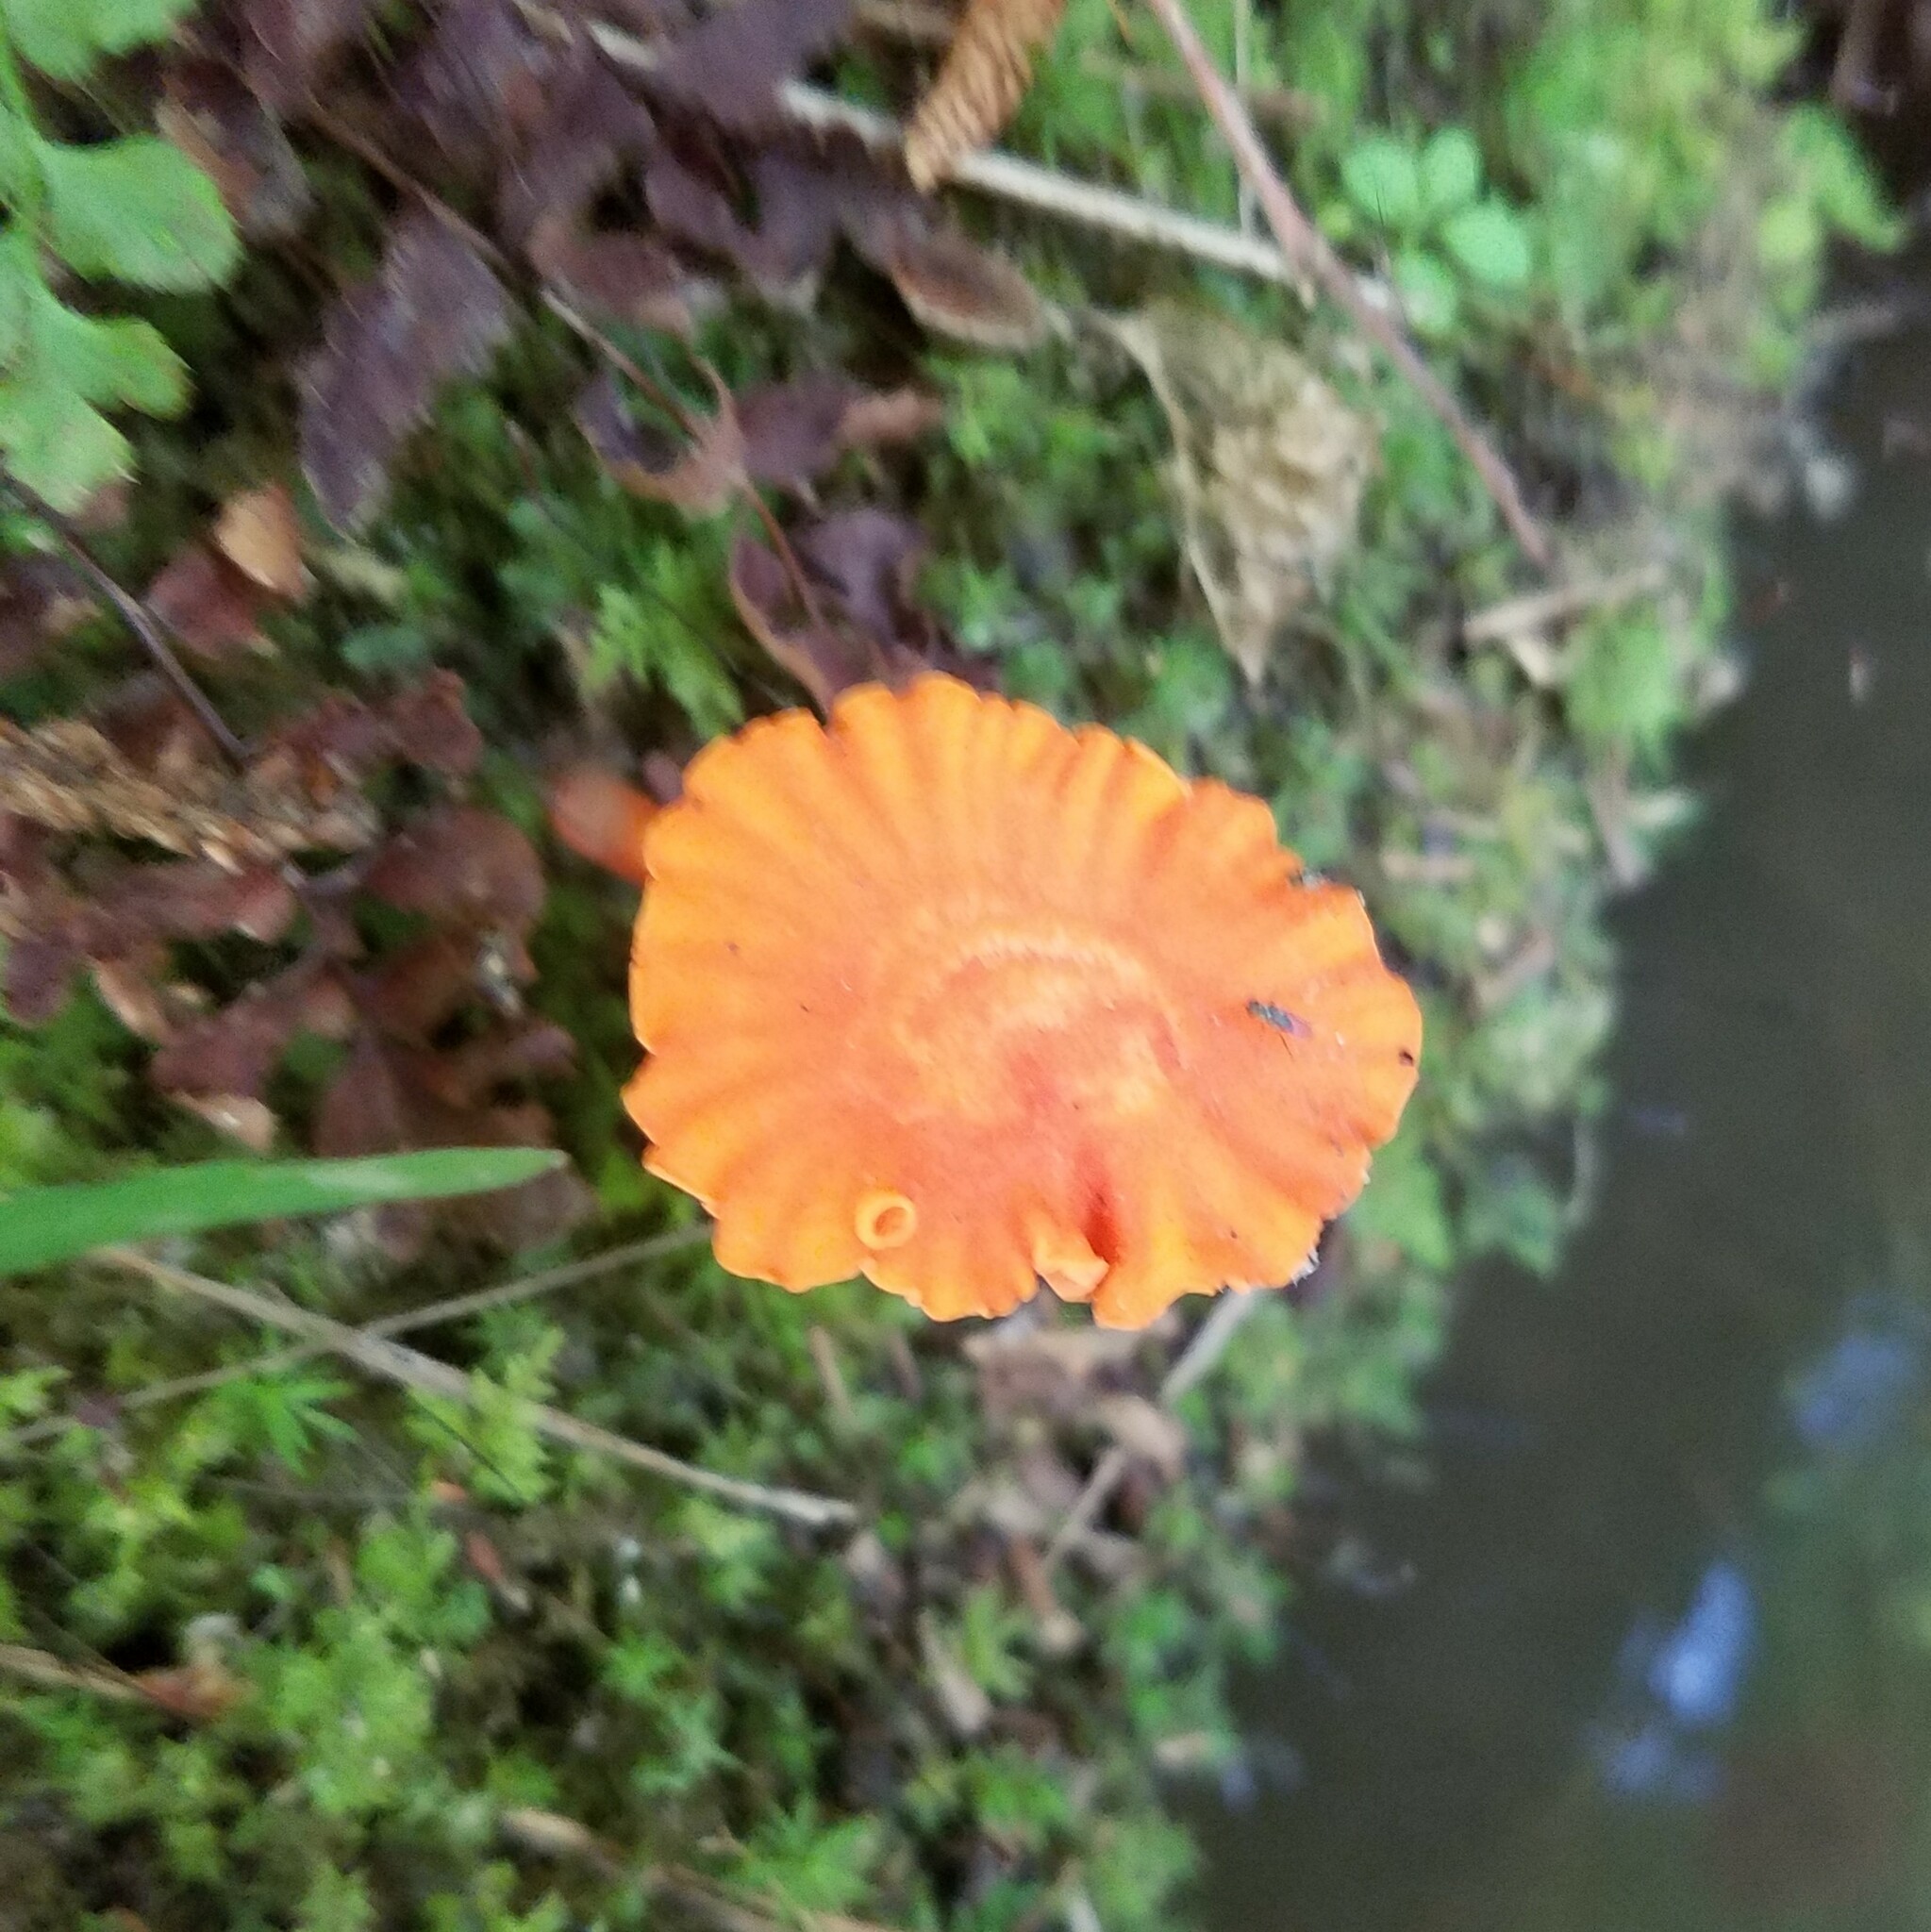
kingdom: Fungi
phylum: Basidiomycota
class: Agaricomycetes
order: Cantharellales
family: Hydnaceae
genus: Cantharellus
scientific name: Cantharellus cinnabarinus
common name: Cinnabar chanterelle
